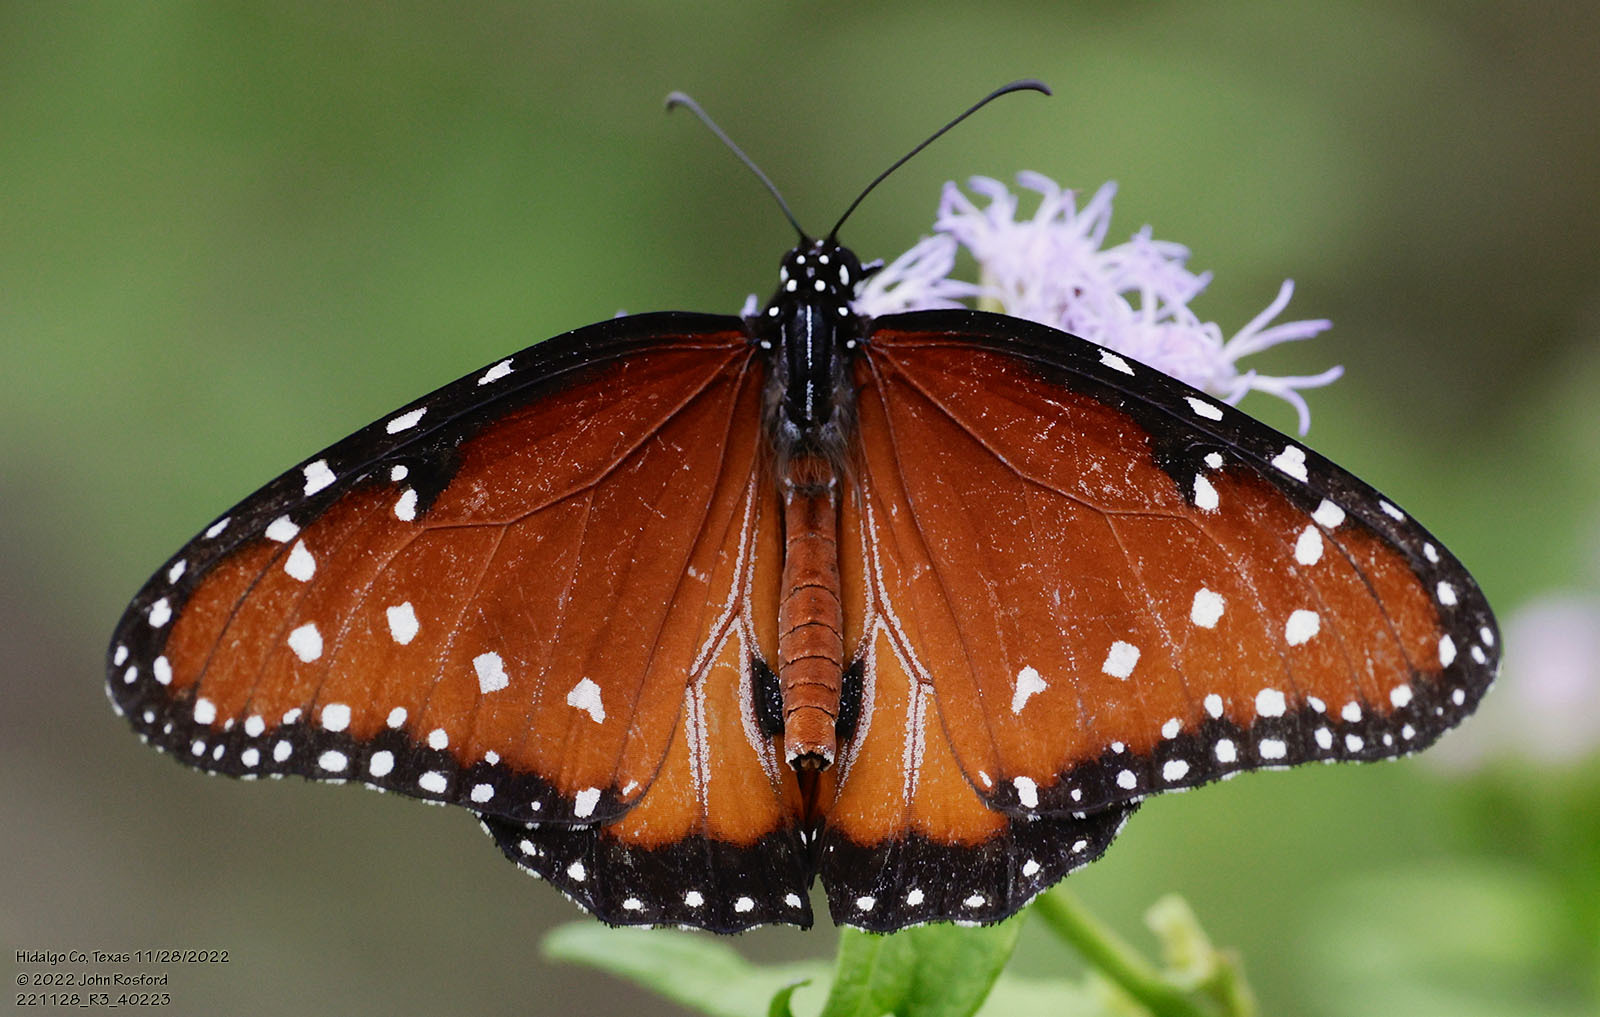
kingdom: Animalia
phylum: Arthropoda
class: Insecta
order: Lepidoptera
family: Nymphalidae
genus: Danaus
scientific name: Danaus gilippus
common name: Queen
